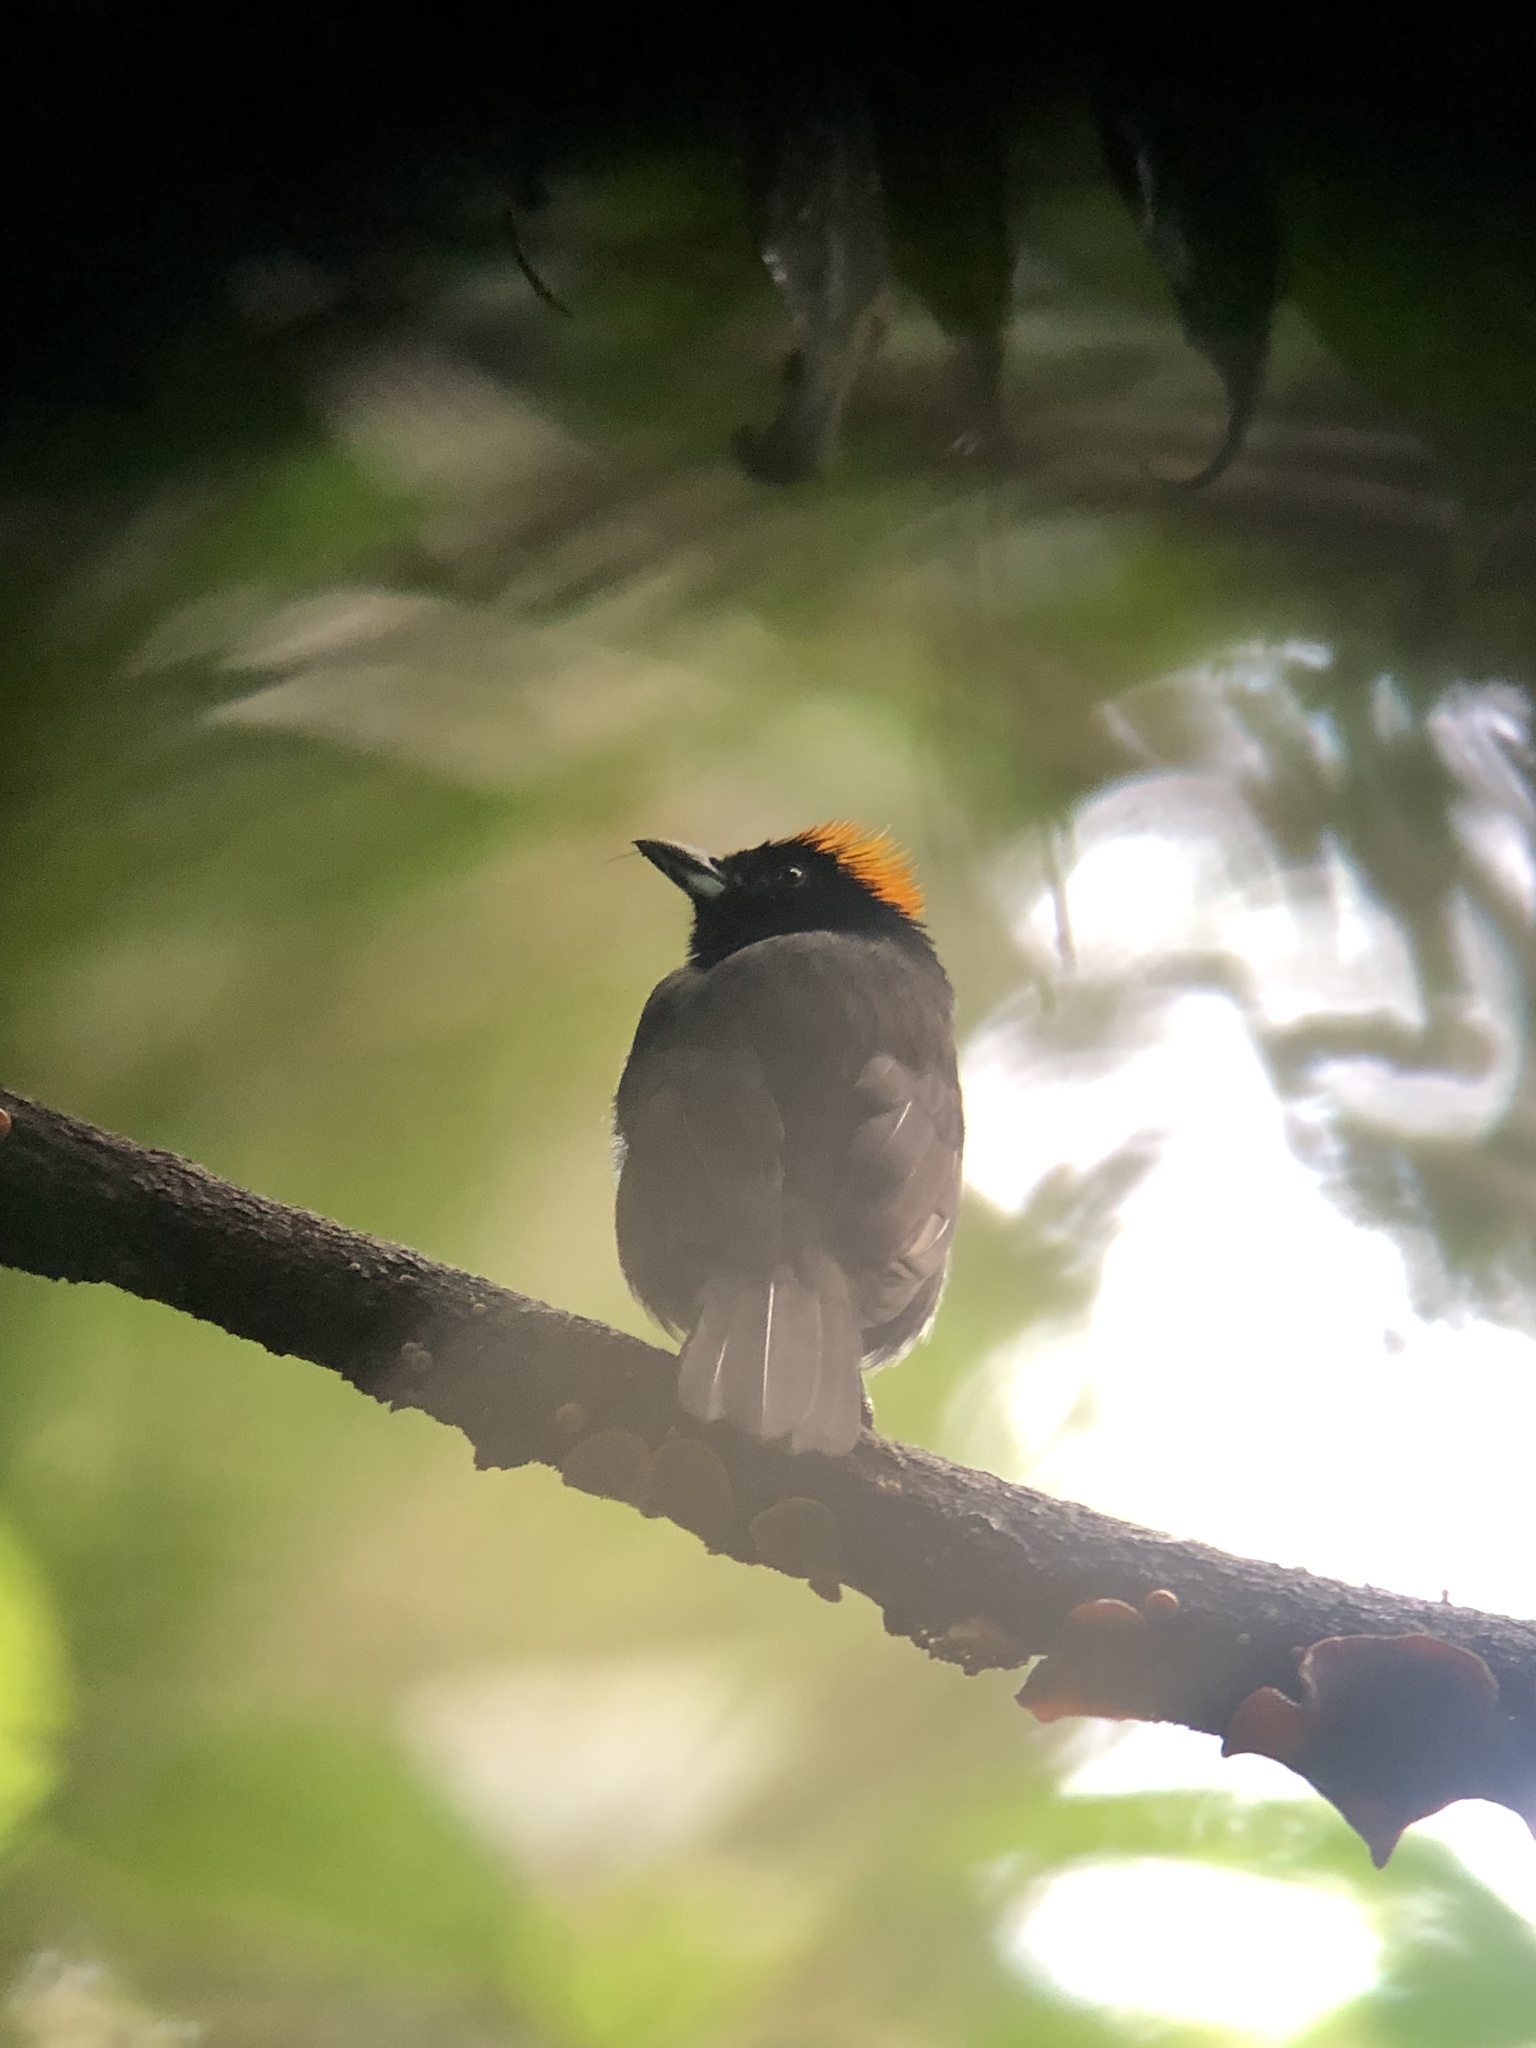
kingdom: Animalia
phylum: Chordata
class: Aves
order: Passeriformes
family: Thraupidae
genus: Tachyphonus
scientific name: Tachyphonus delatrii
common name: Tawny-crested tanager
